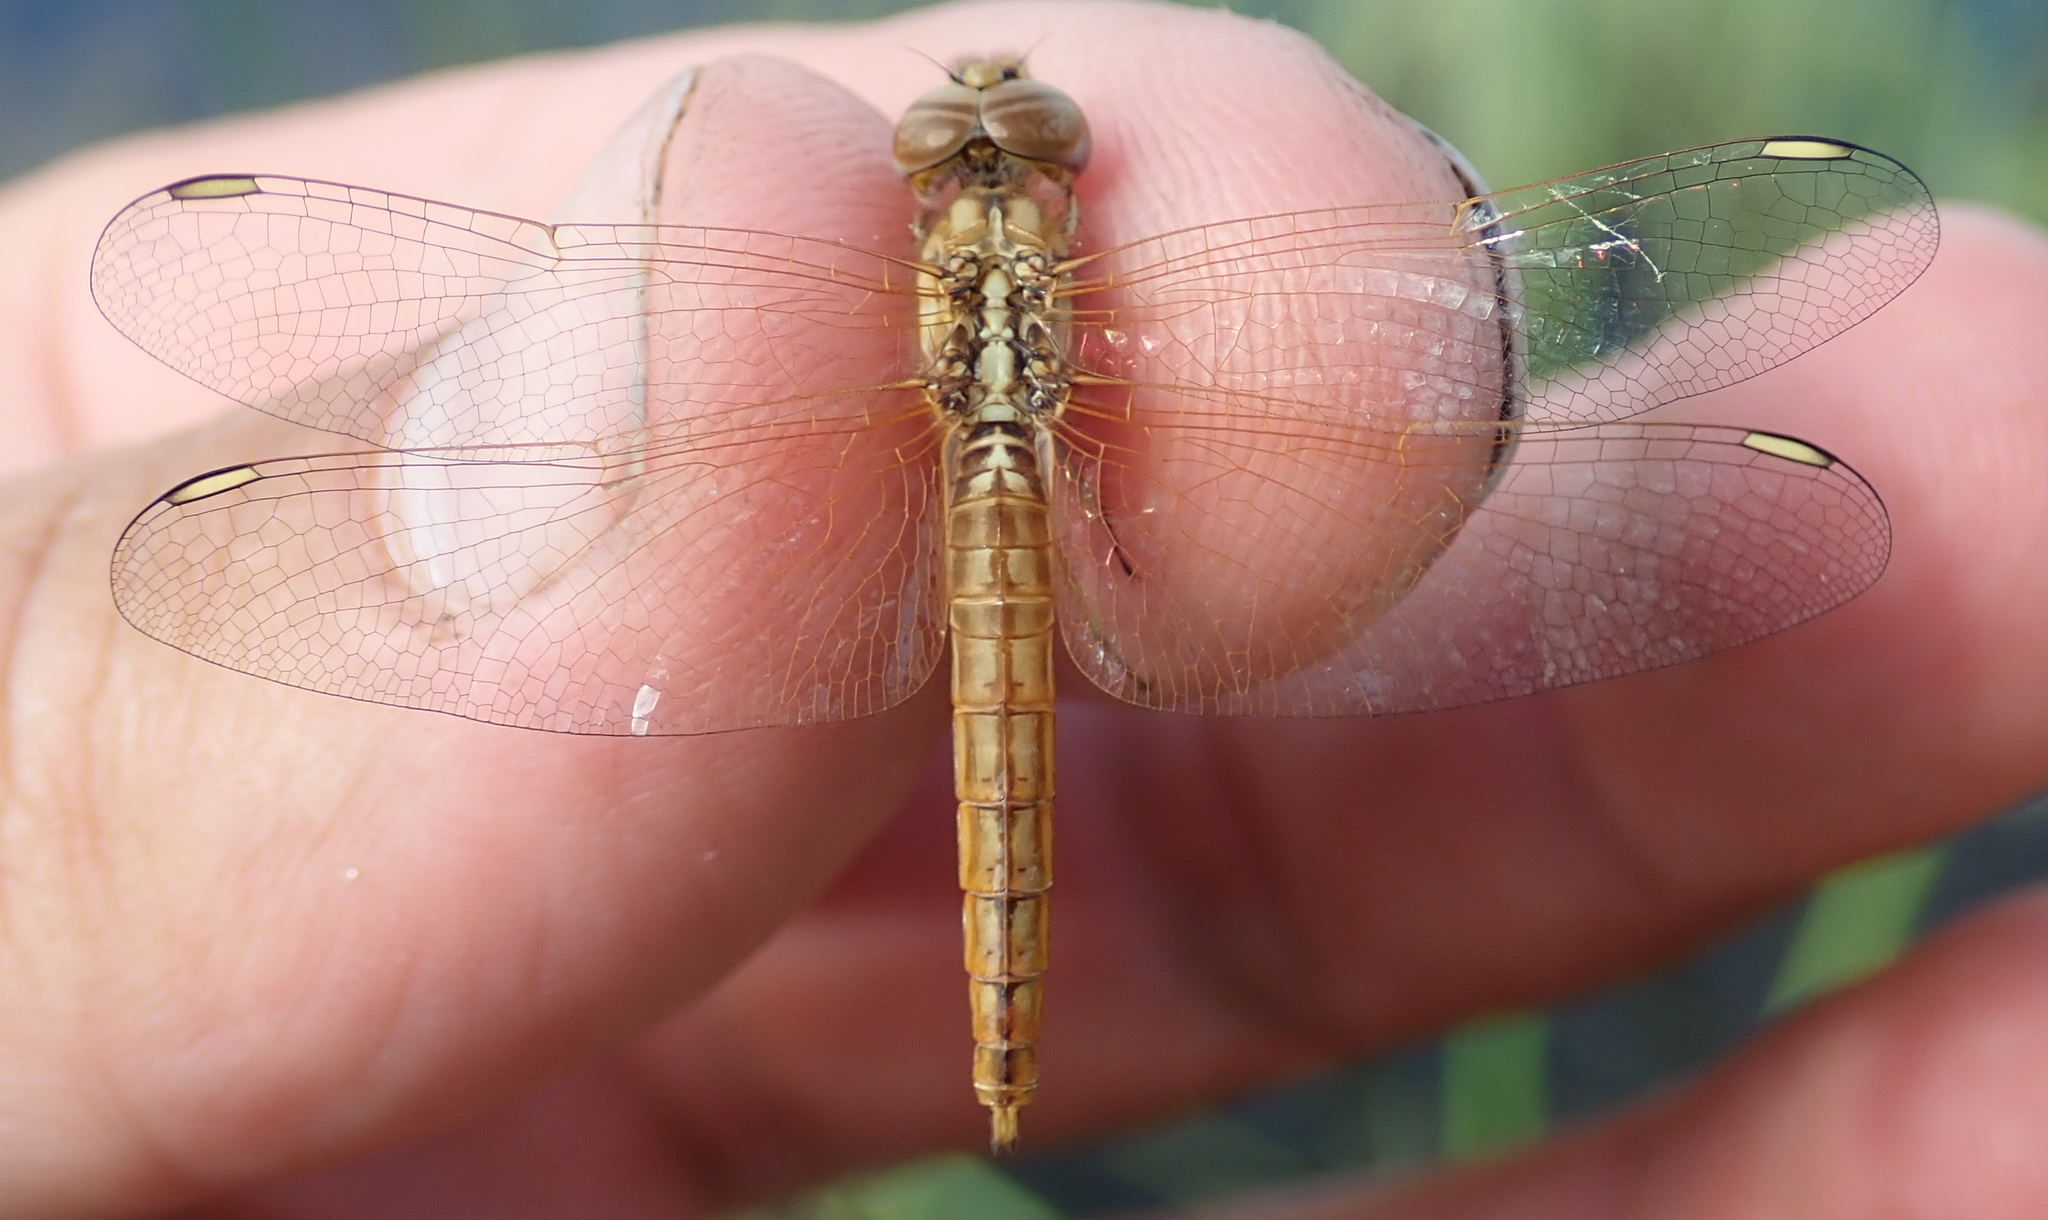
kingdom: Animalia
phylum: Arthropoda
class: Insecta
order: Odonata
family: Libellulidae
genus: Brachythemis
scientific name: Brachythemis lacustris
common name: Red groundling
